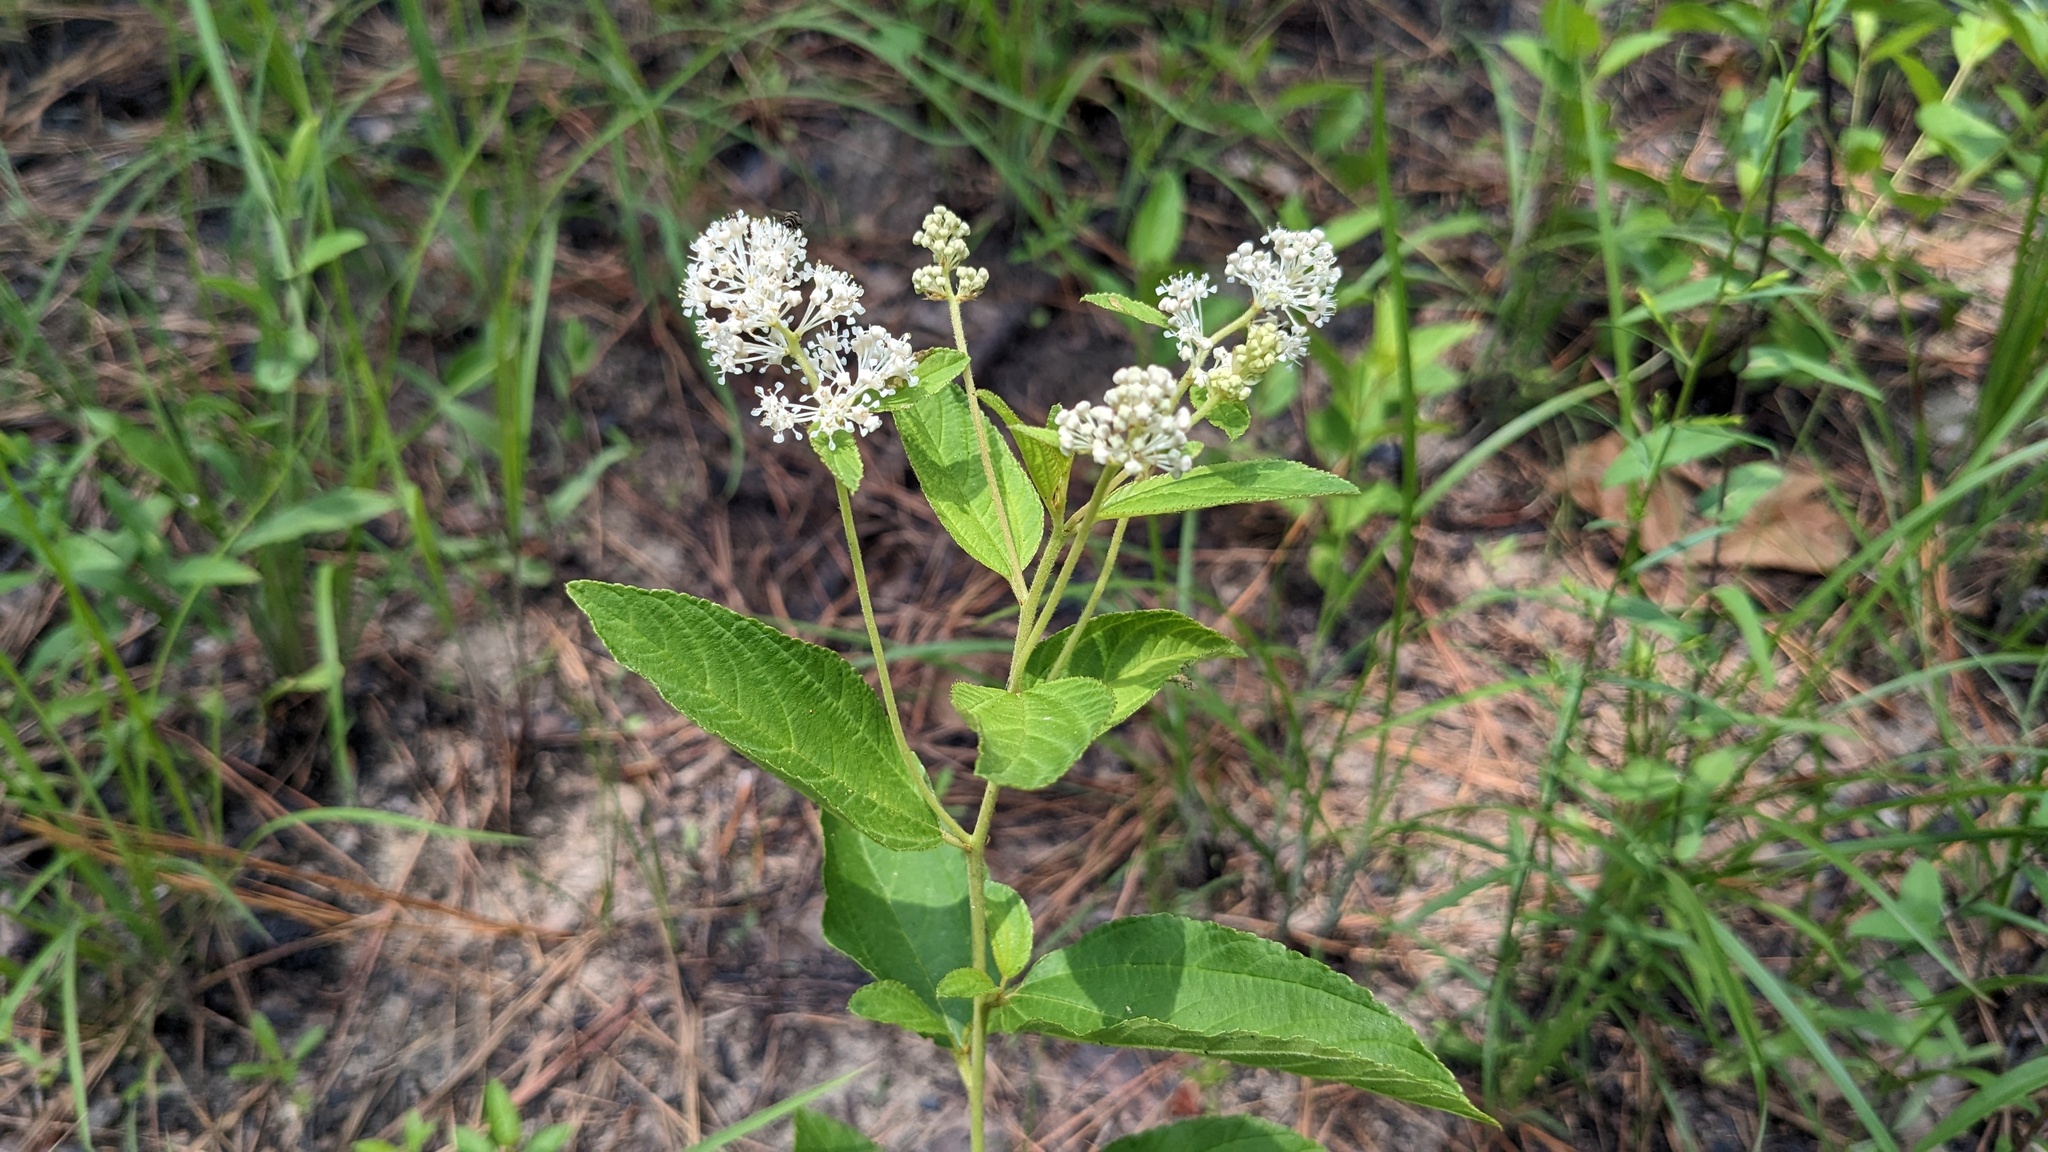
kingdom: Plantae
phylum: Tracheophyta
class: Magnoliopsida
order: Rosales
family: Rhamnaceae
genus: Ceanothus
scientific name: Ceanothus americanus
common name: Redroot
